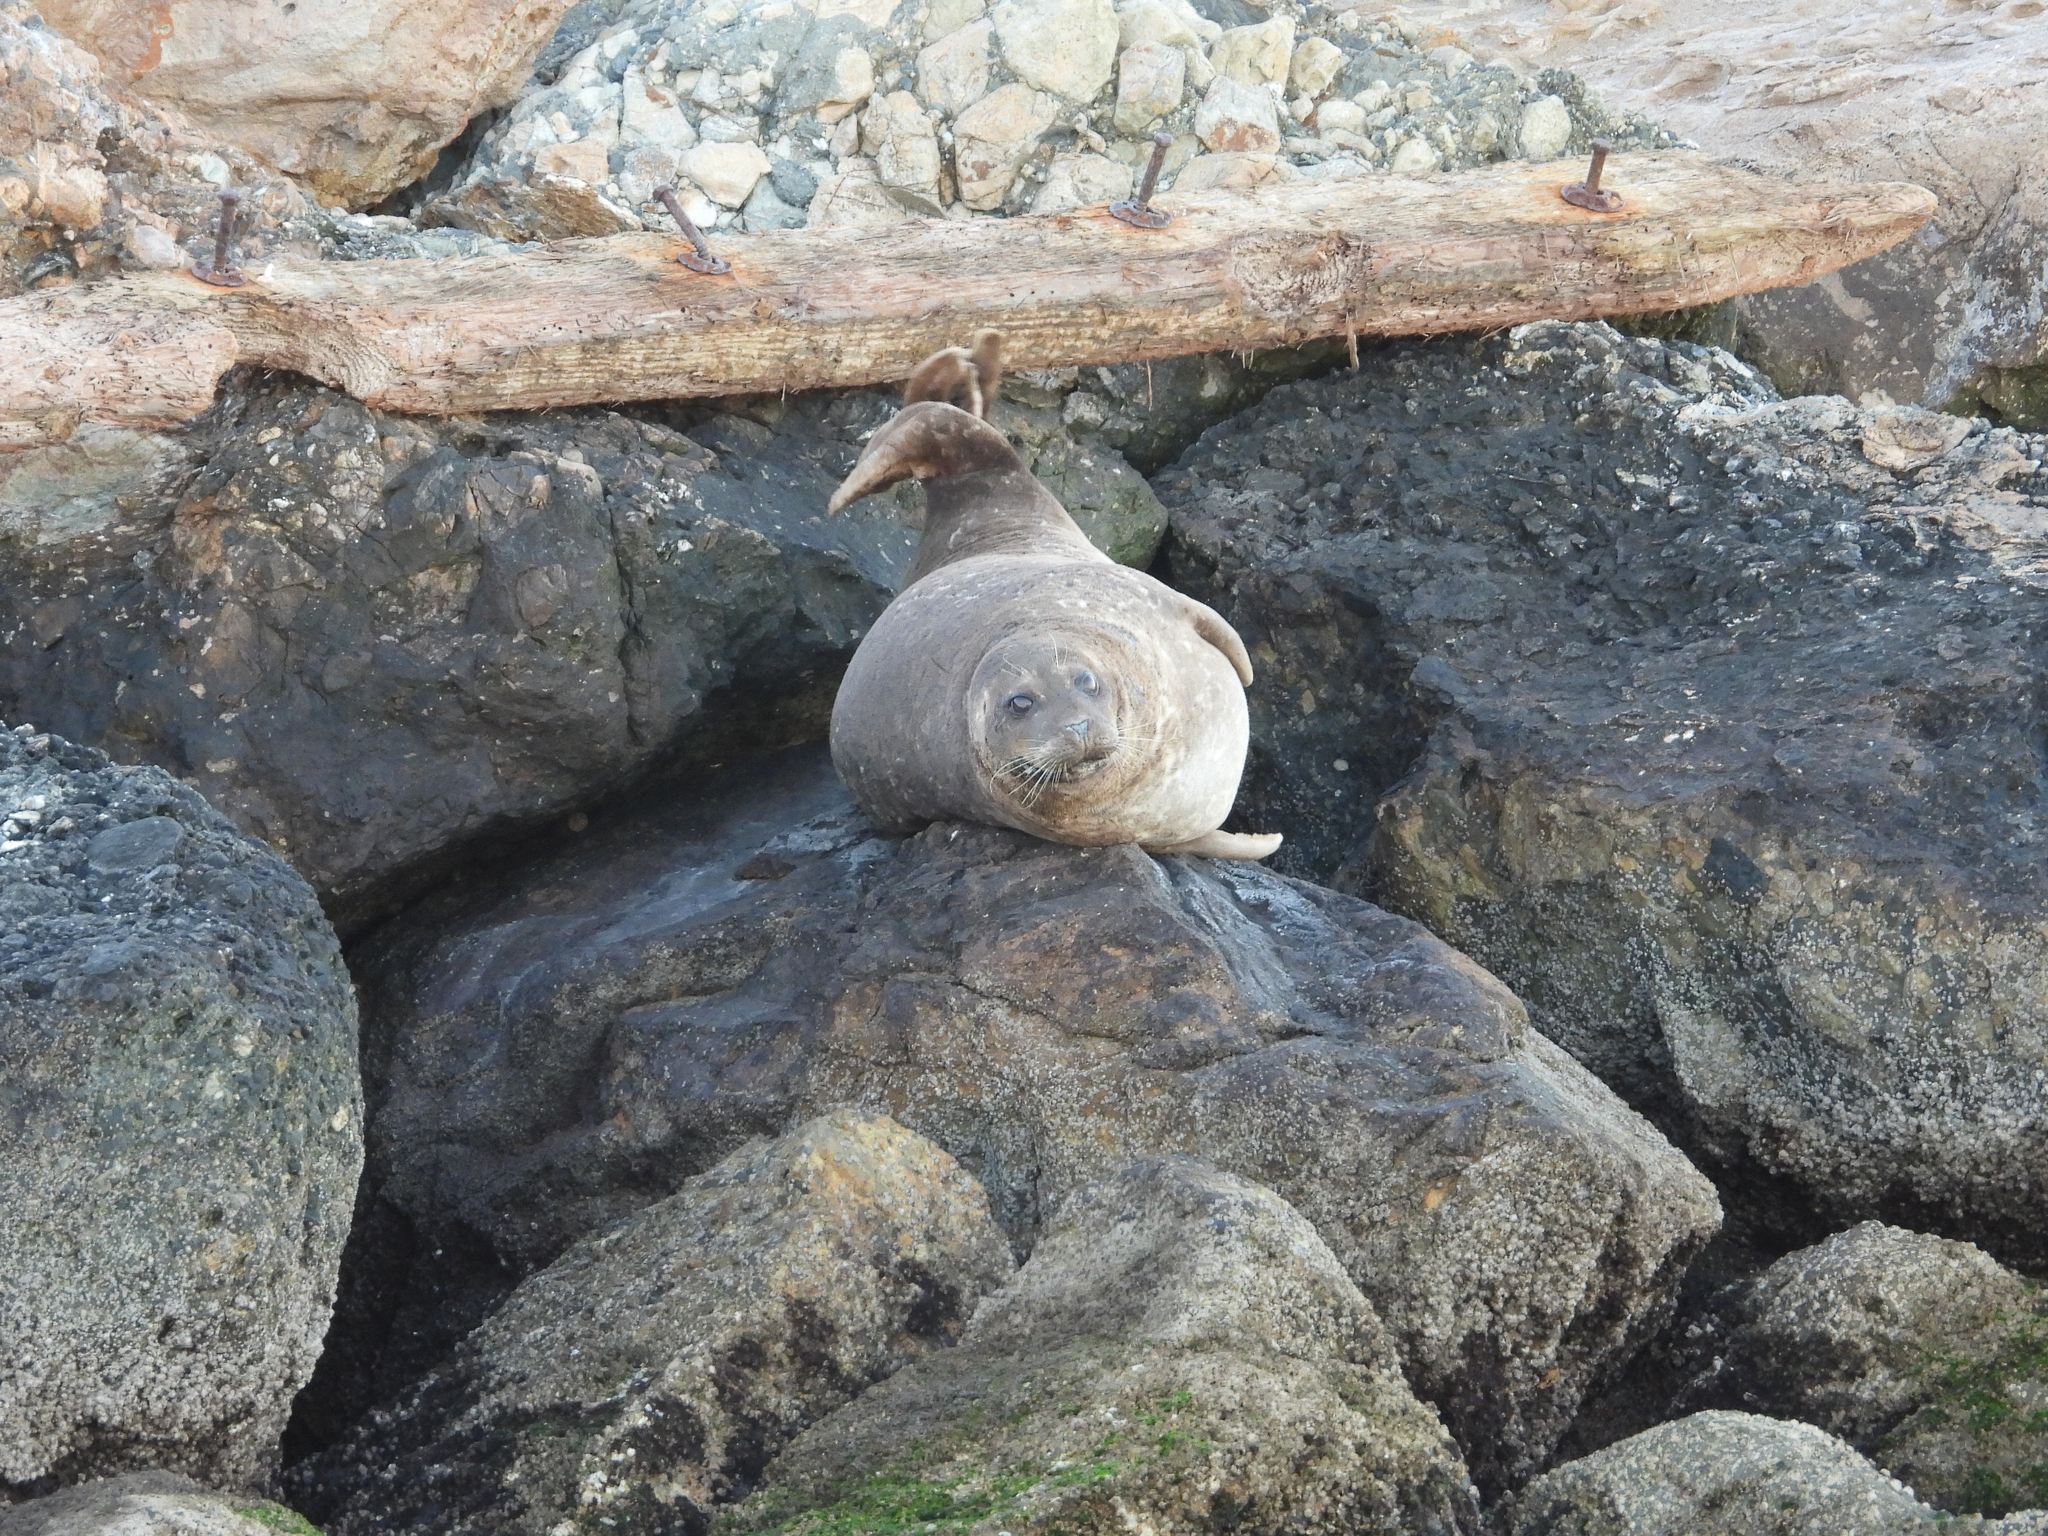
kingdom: Animalia
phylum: Chordata
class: Mammalia
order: Carnivora
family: Phocidae
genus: Phoca
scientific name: Phoca vitulina
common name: Harbor seal
